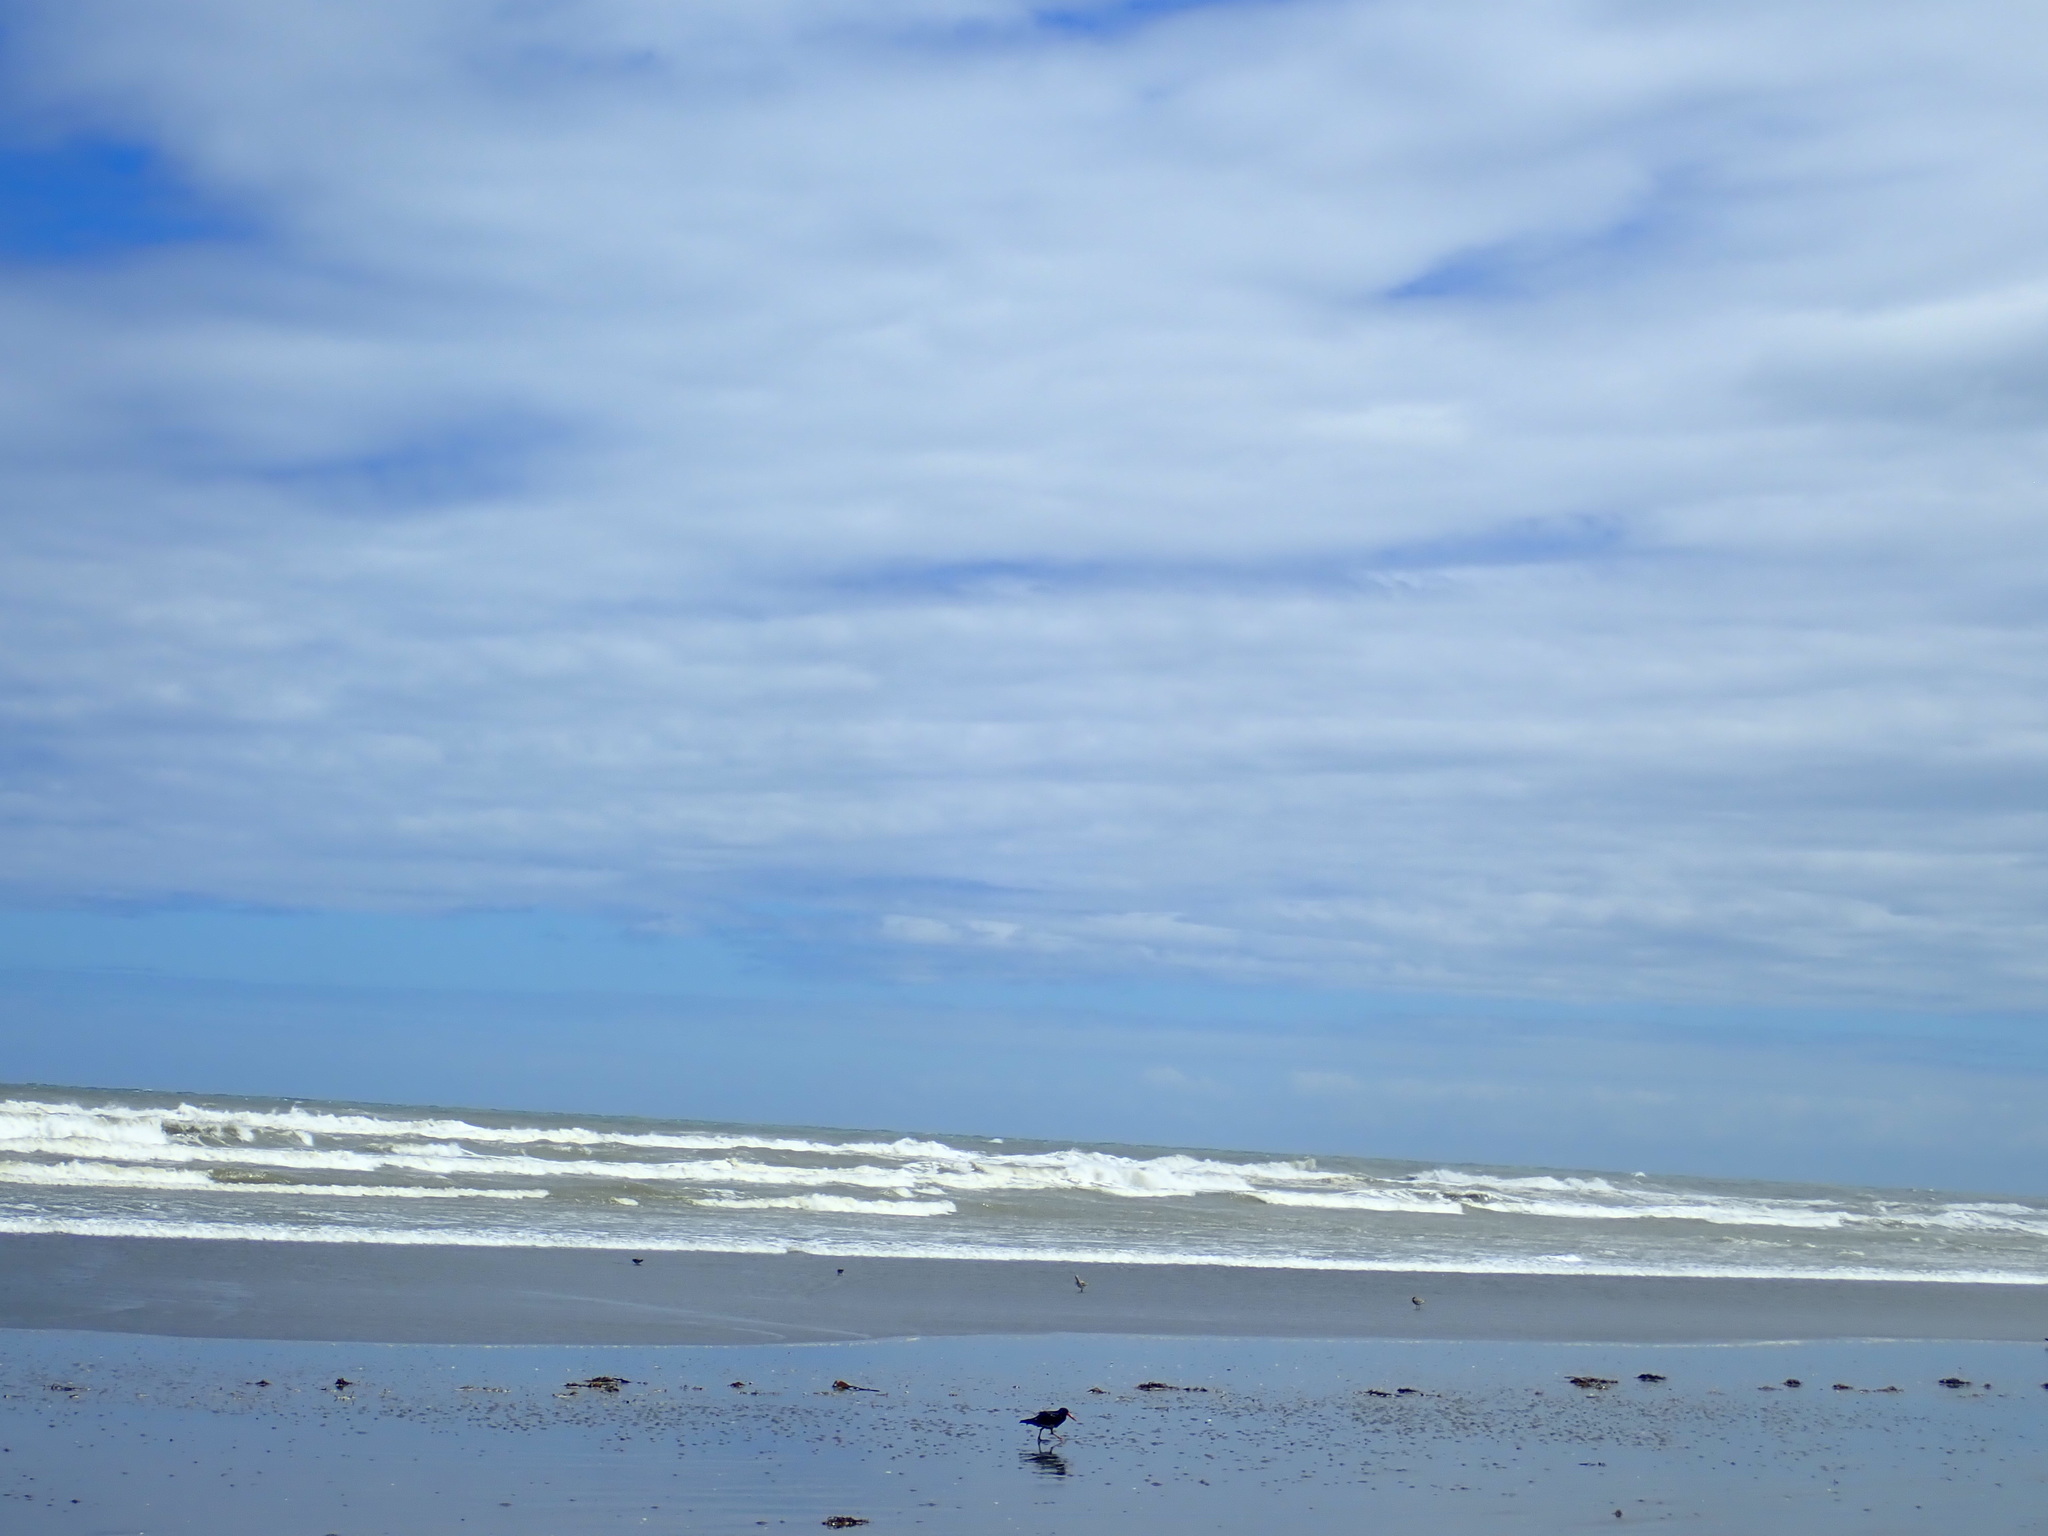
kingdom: Animalia
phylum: Chordata
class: Aves
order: Charadriiformes
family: Haematopodidae
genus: Haematopus
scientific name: Haematopus unicolor
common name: Variable oystercatcher
